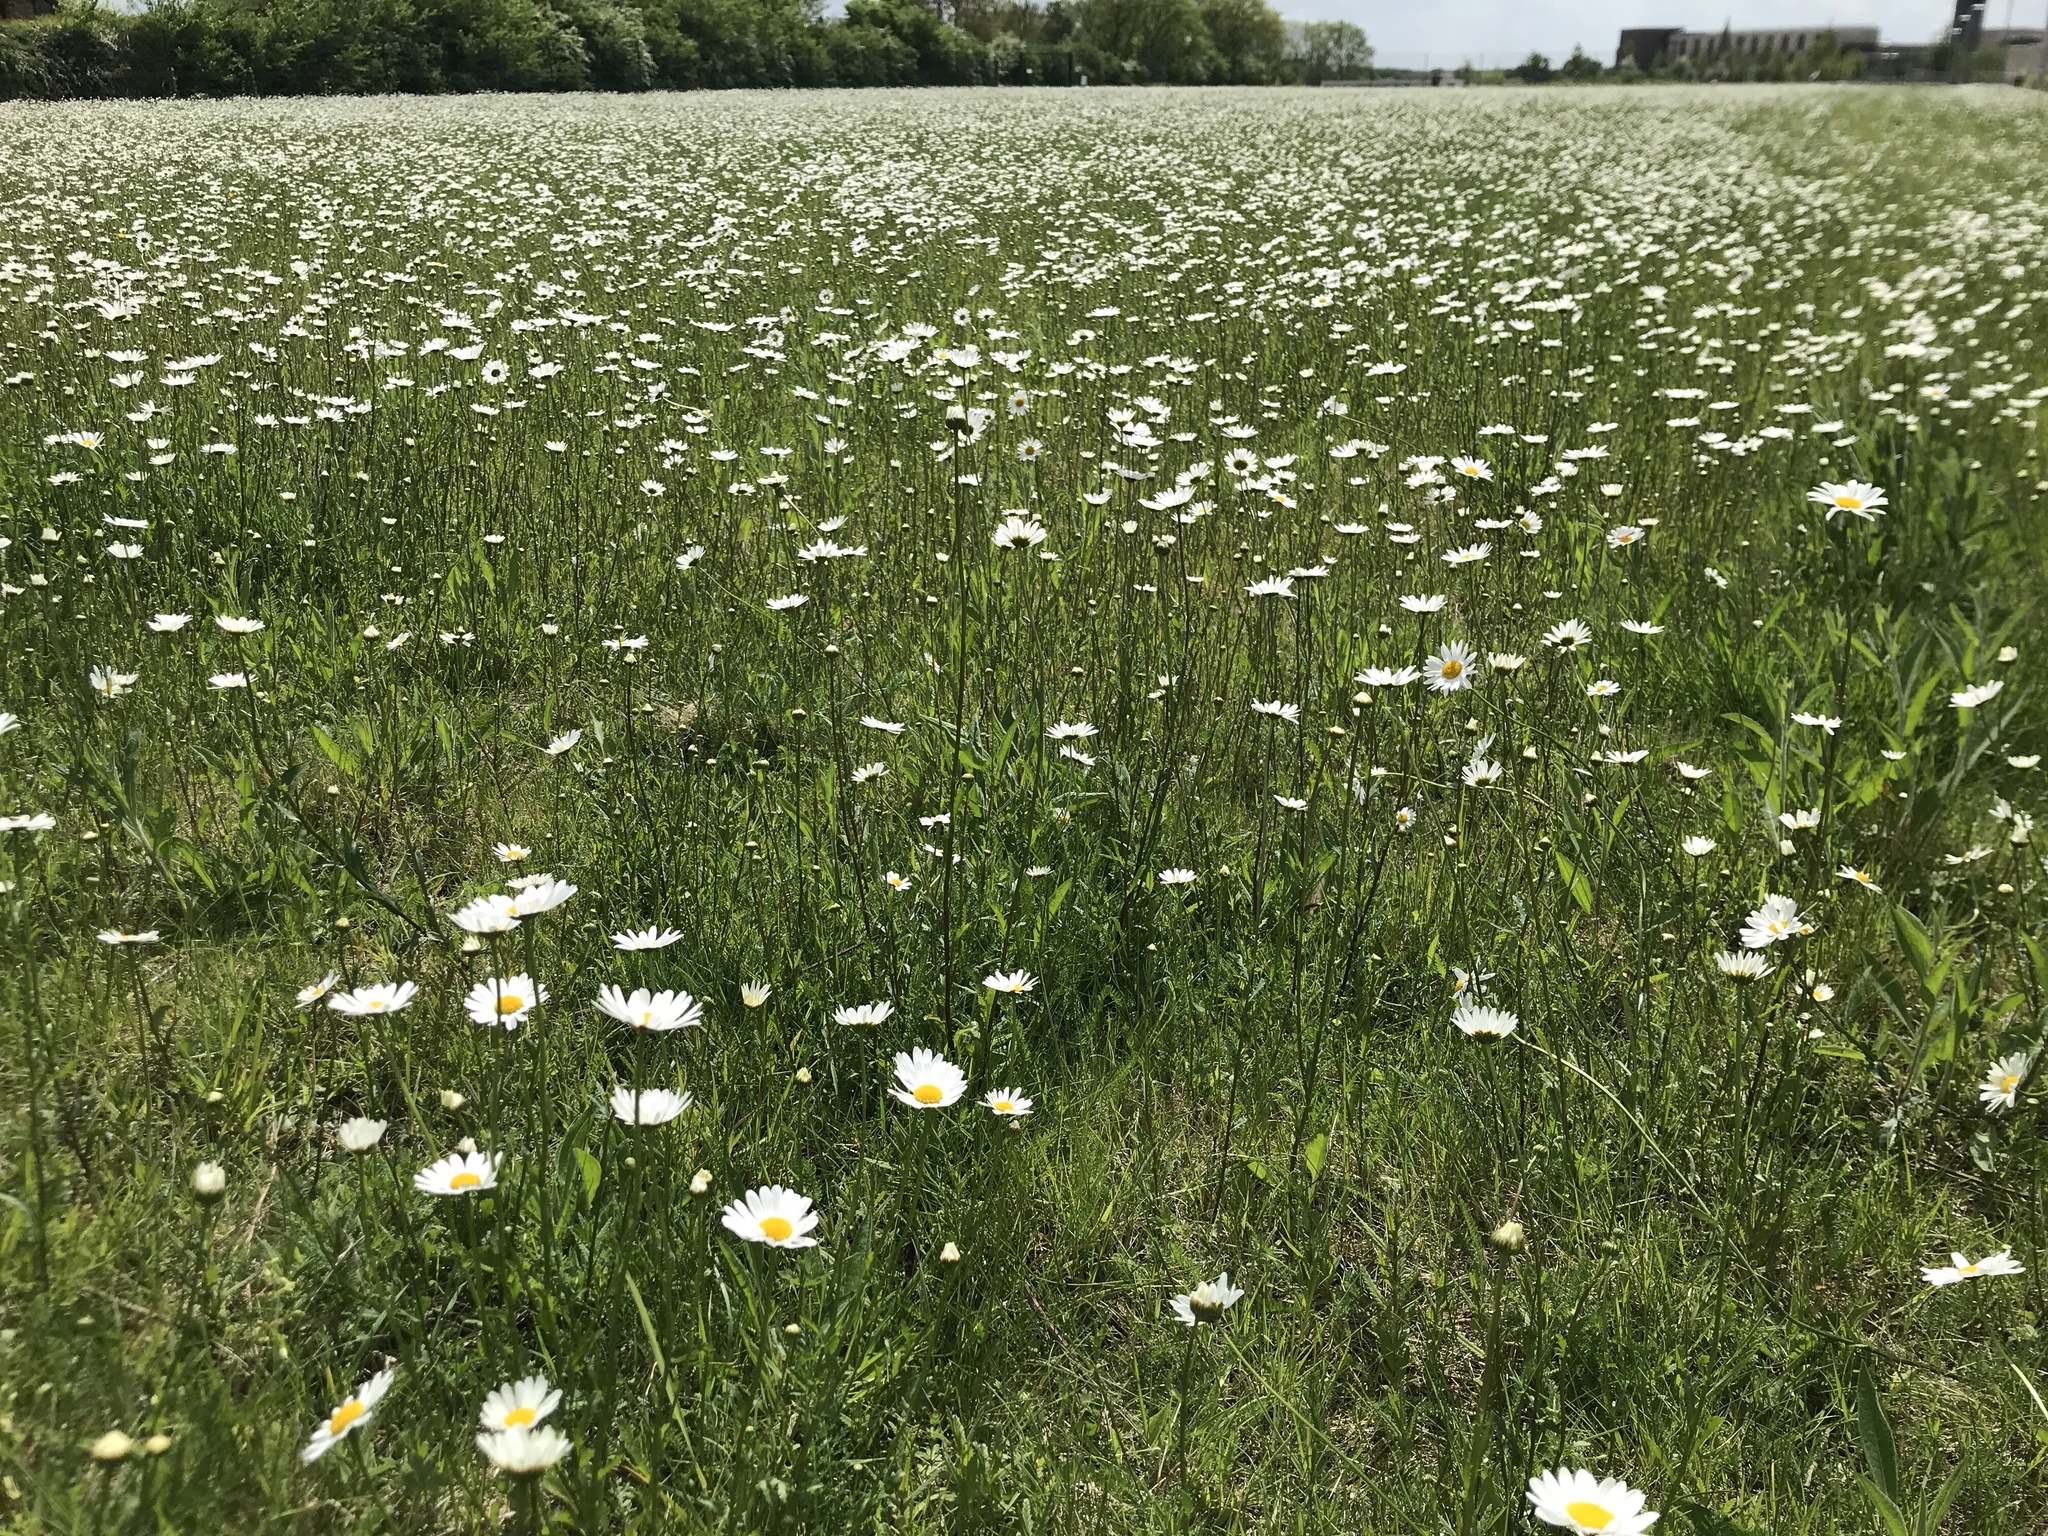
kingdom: Plantae
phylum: Tracheophyta
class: Magnoliopsida
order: Asterales
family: Asteraceae
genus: Leucanthemum
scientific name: Leucanthemum vulgare
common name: Oxeye daisy
